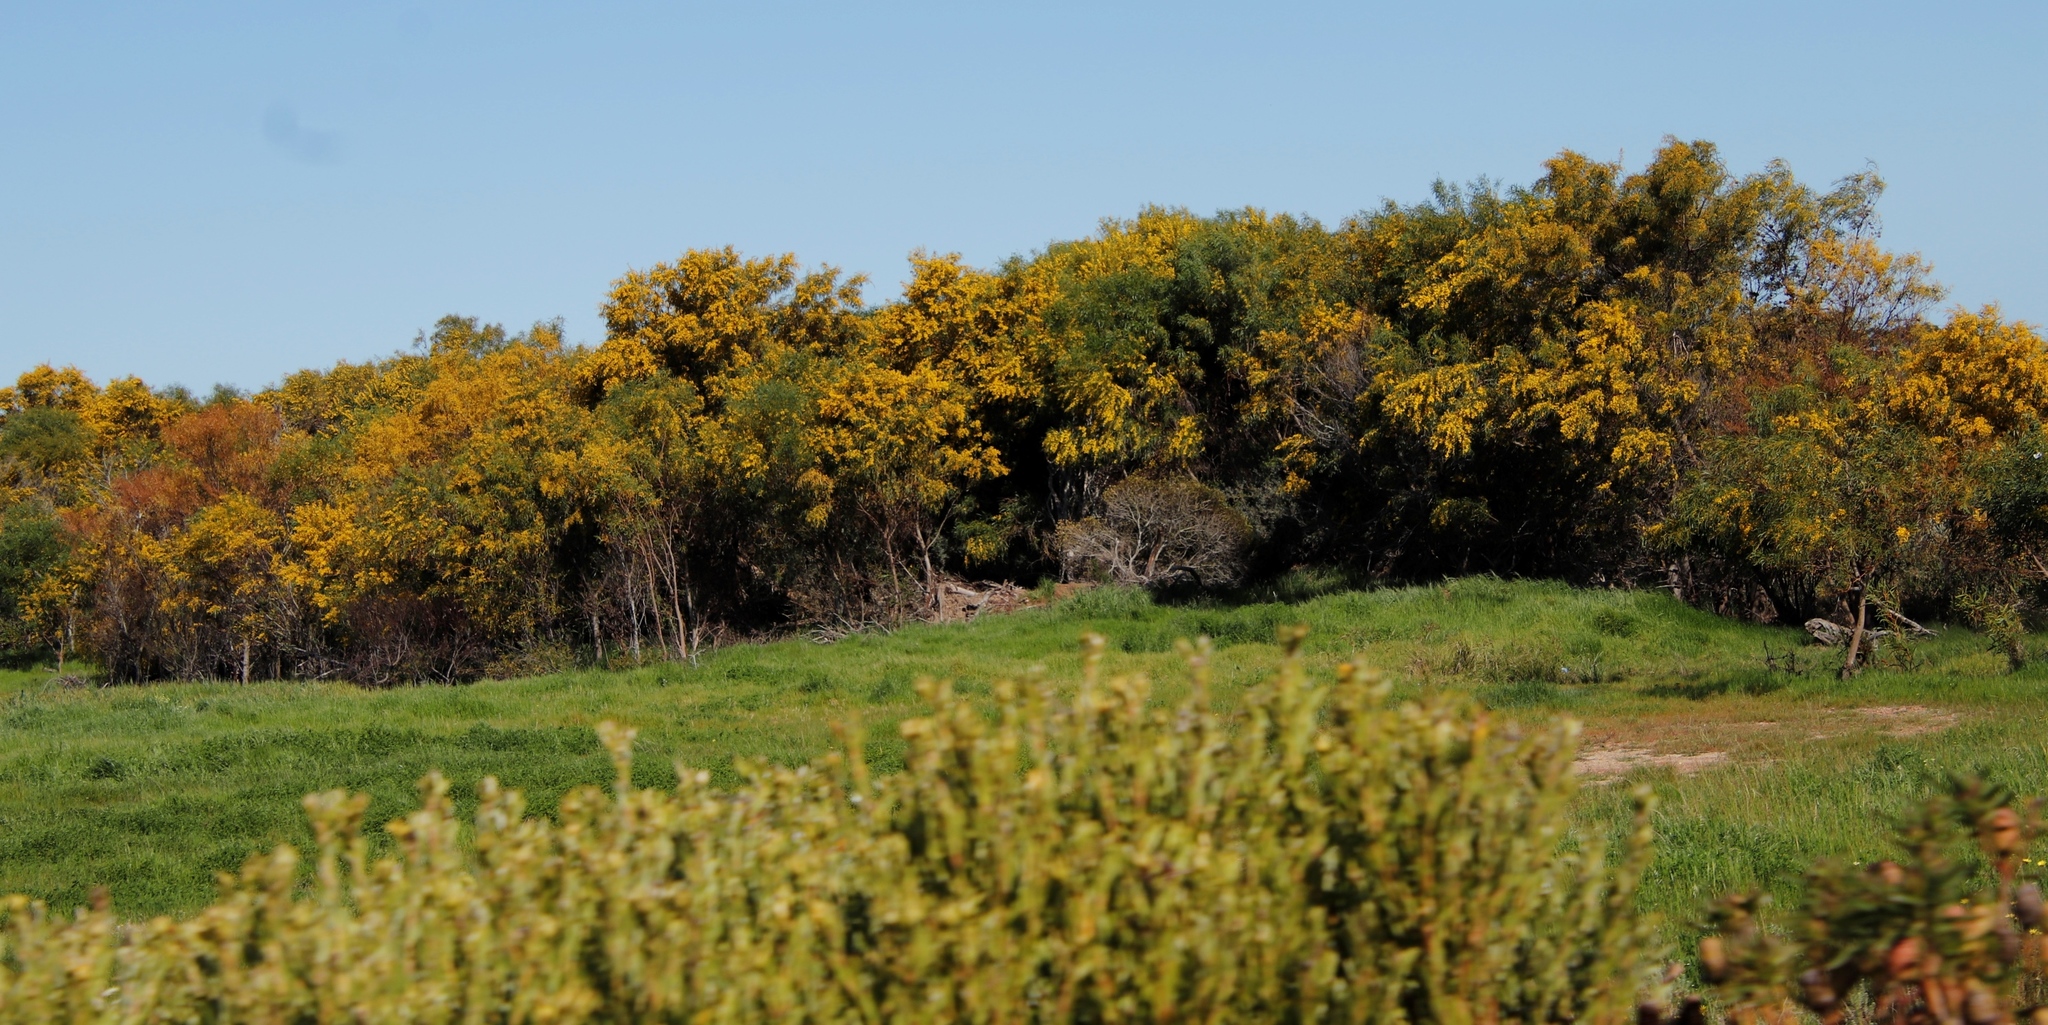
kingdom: Plantae
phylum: Tracheophyta
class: Magnoliopsida
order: Fabales
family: Fabaceae
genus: Acacia
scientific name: Acacia saligna
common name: Orange wattle
